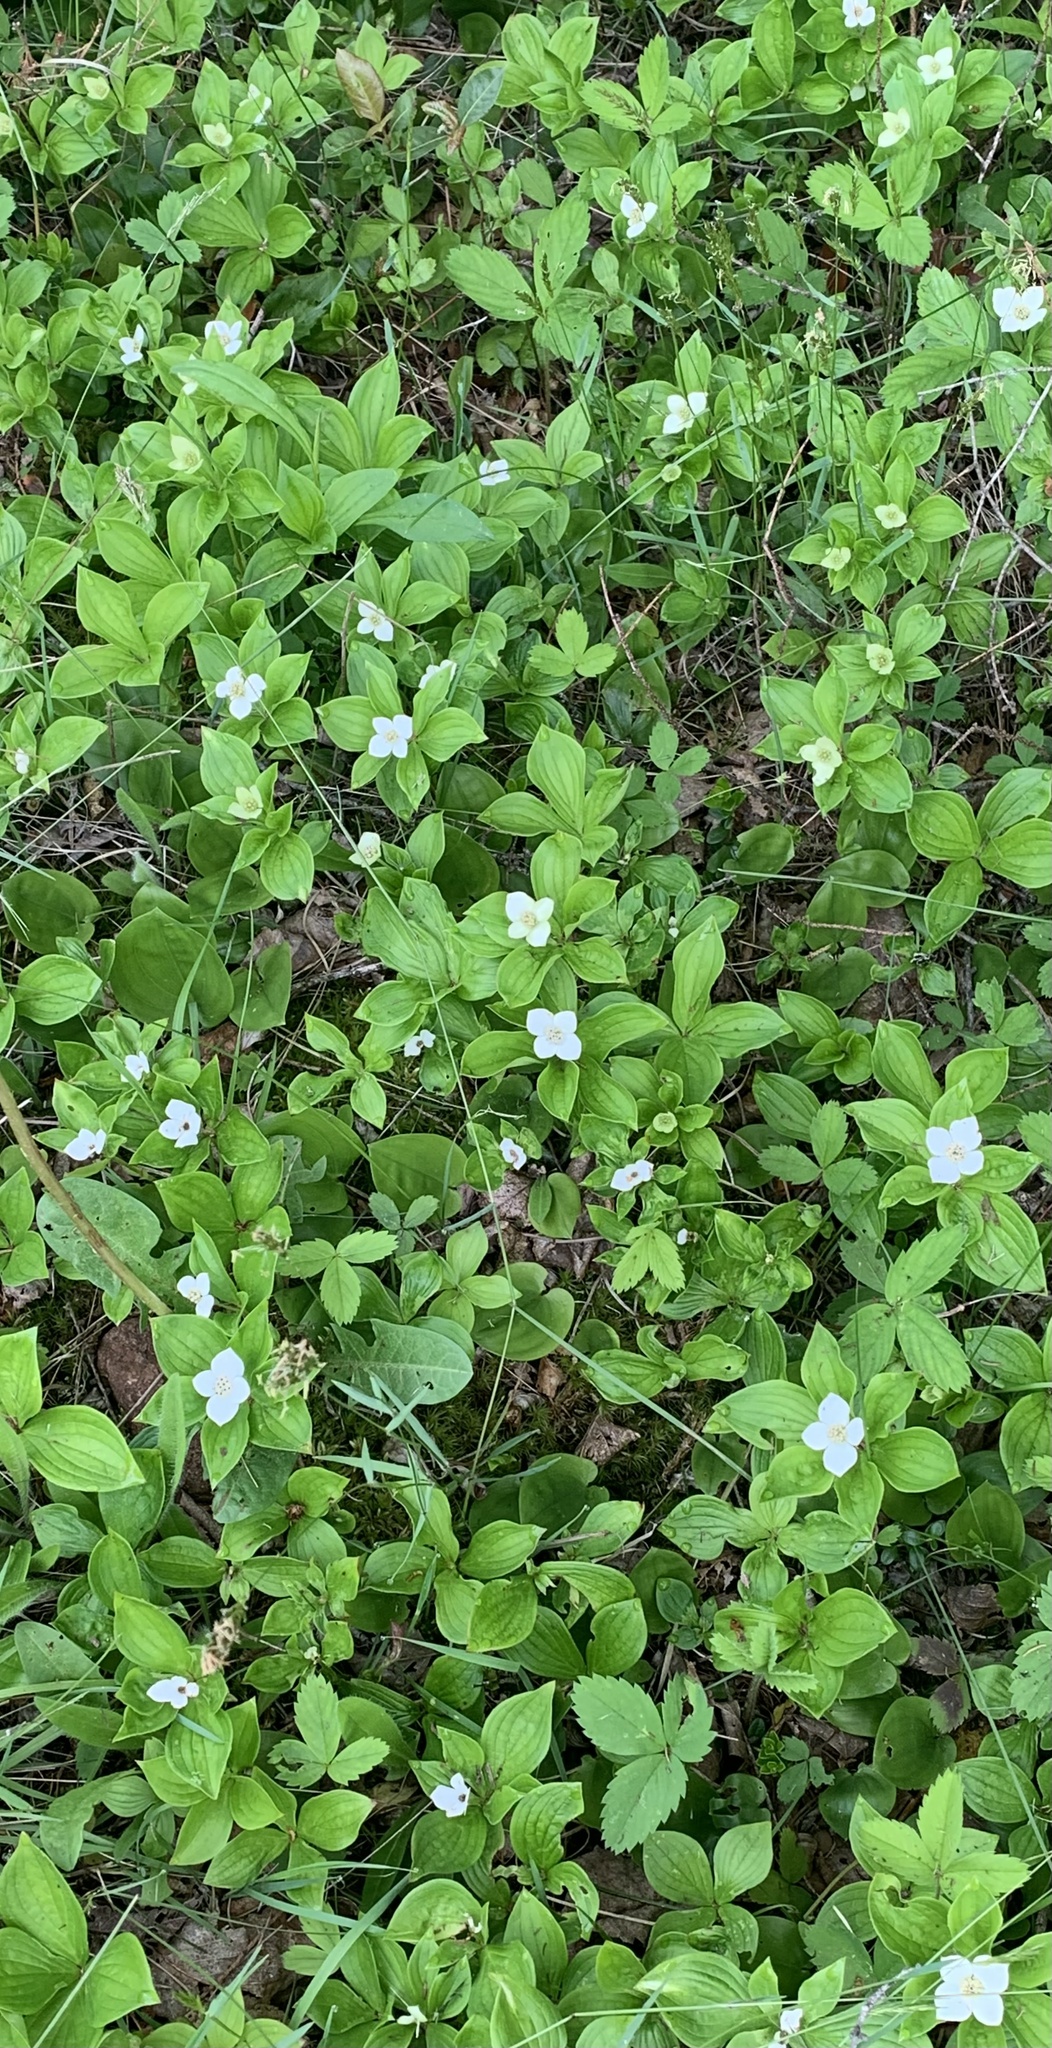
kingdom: Plantae
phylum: Tracheophyta
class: Magnoliopsida
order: Cornales
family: Cornaceae
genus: Cornus
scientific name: Cornus canadensis
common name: Creeping dogwood
